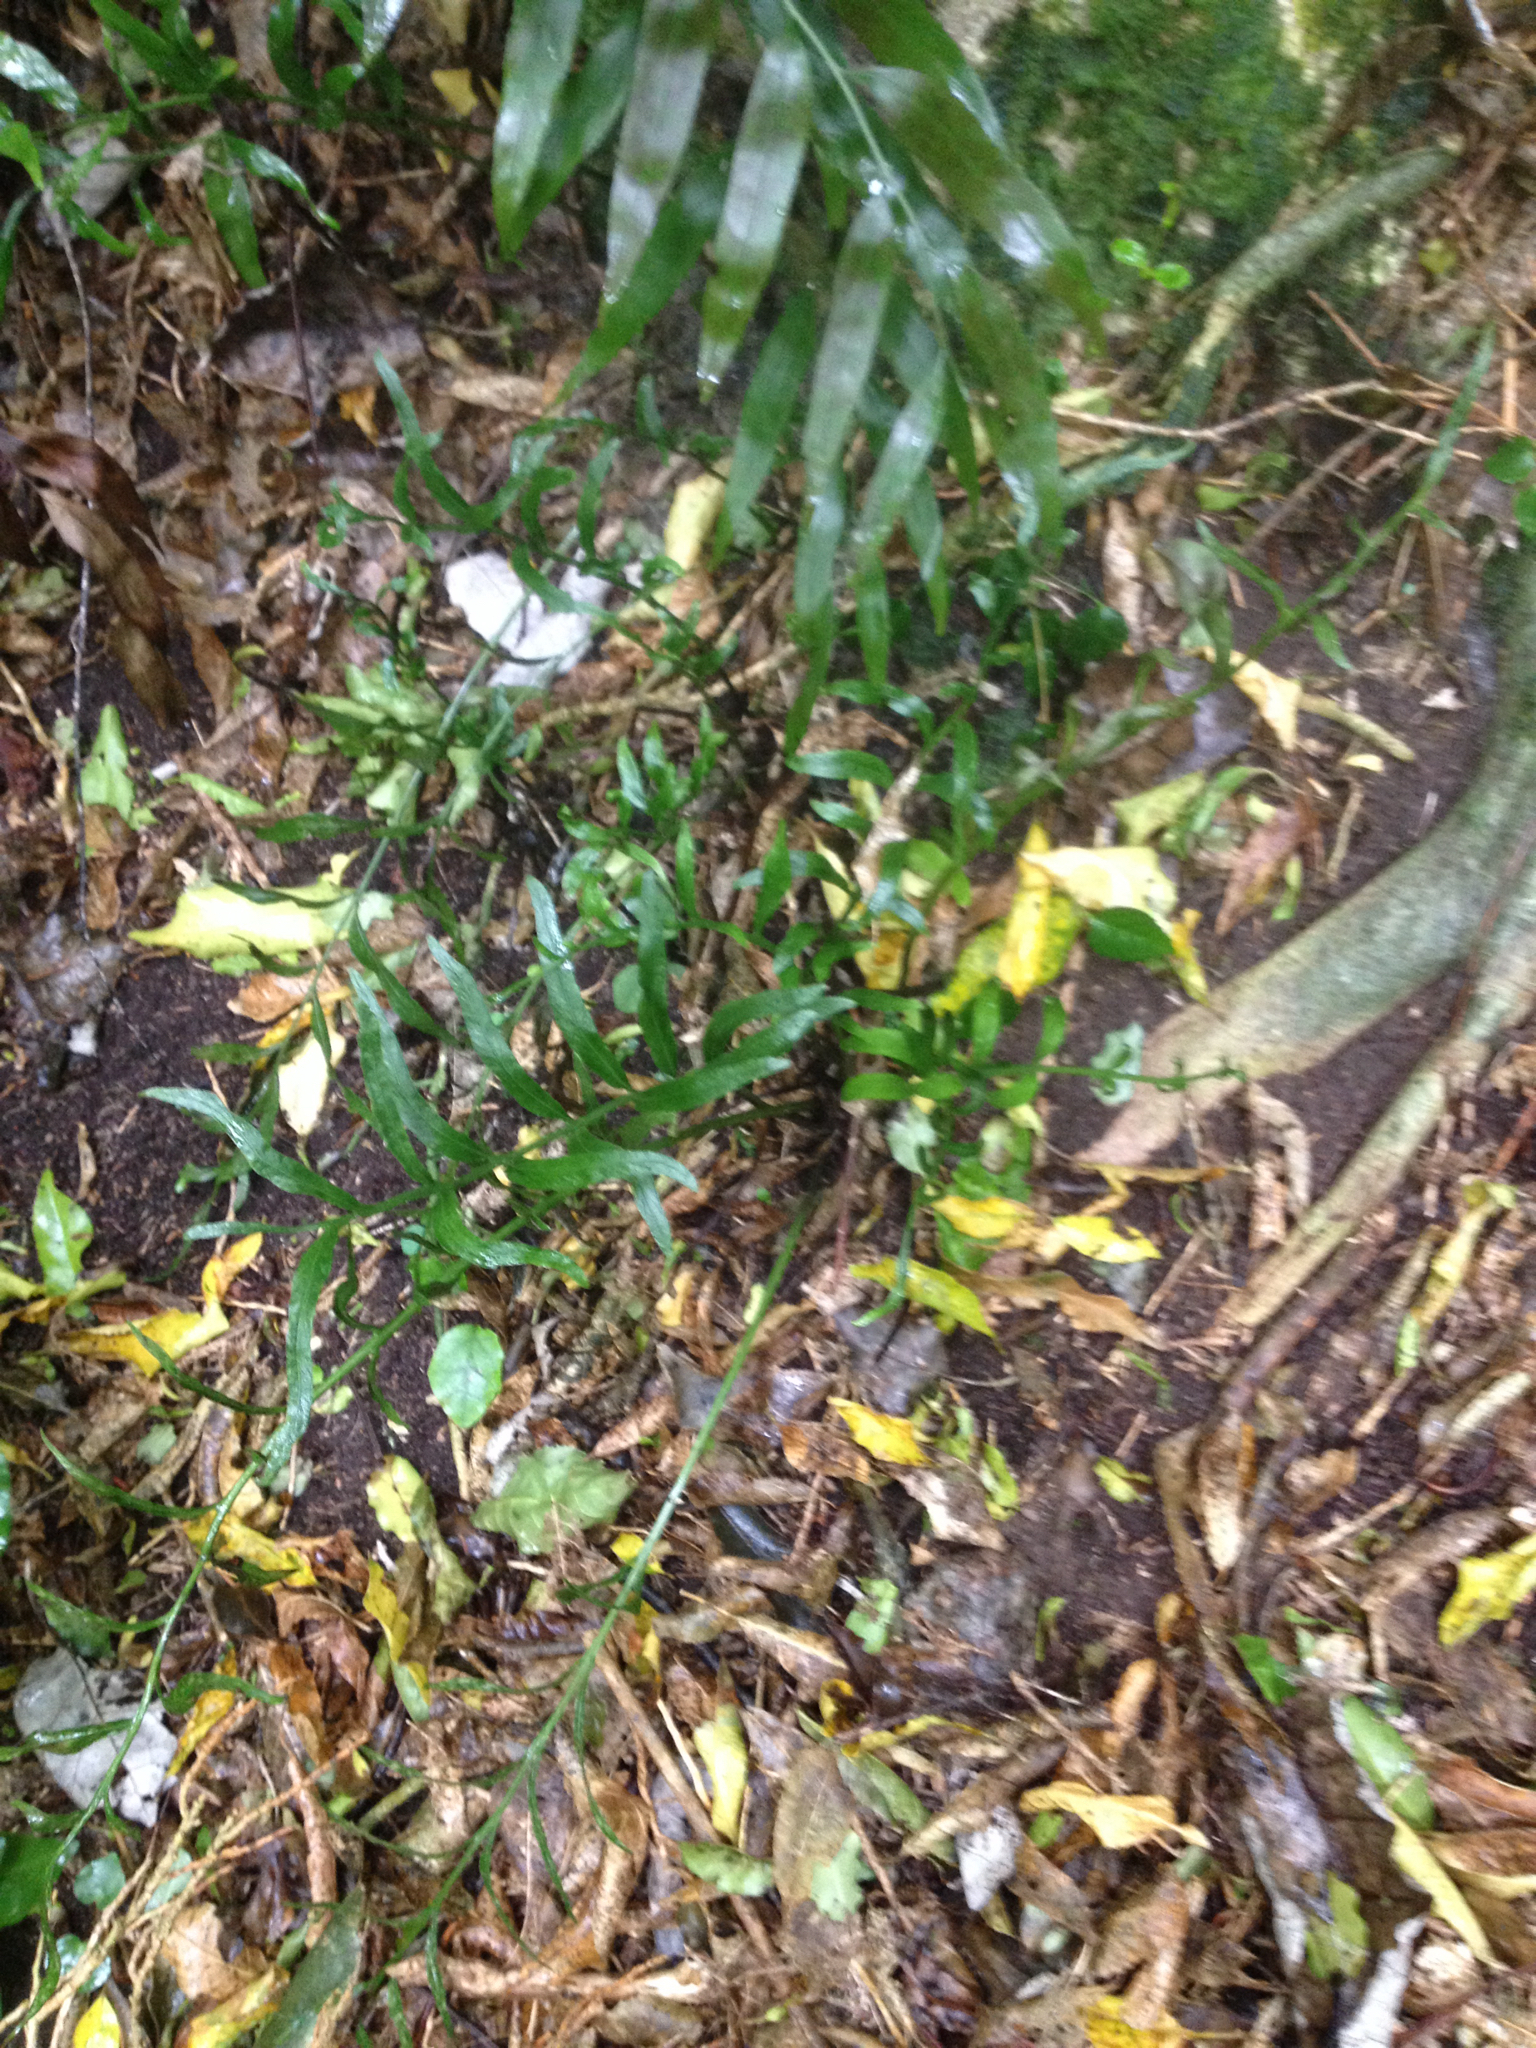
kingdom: Plantae
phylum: Tracheophyta
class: Polypodiopsida
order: Polypodiales
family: Aspleniaceae
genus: Asplenium
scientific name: Asplenium oblongifolium
